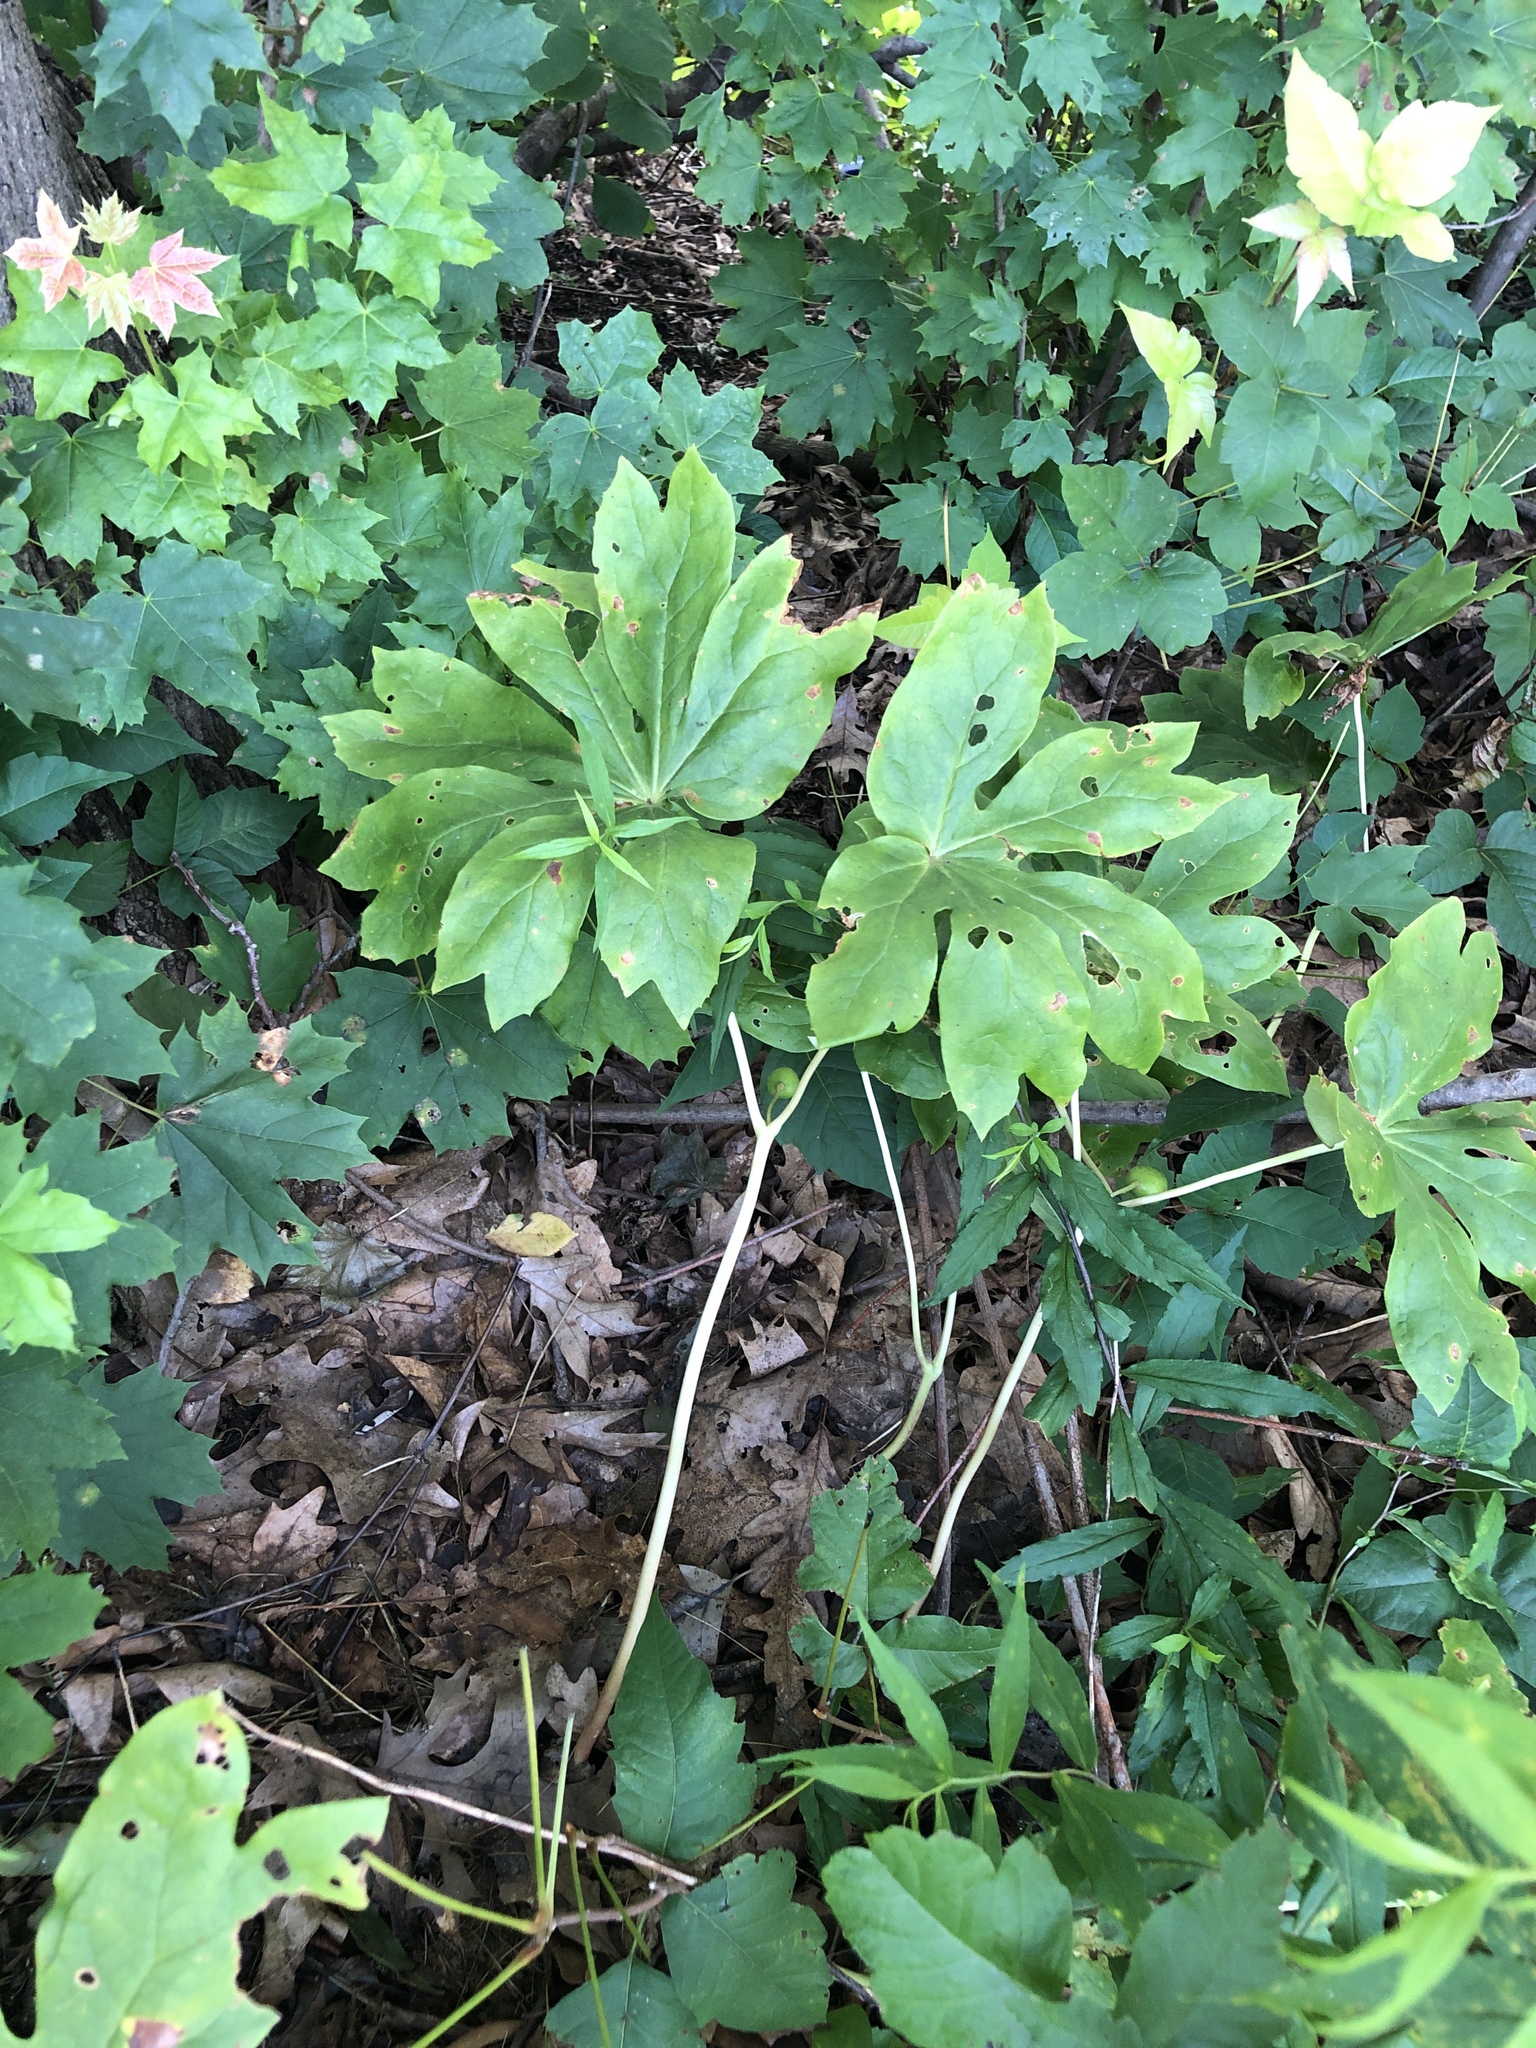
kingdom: Plantae
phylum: Tracheophyta
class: Magnoliopsida
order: Ranunculales
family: Berberidaceae
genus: Podophyllum
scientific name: Podophyllum peltatum
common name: Wild mandrake
